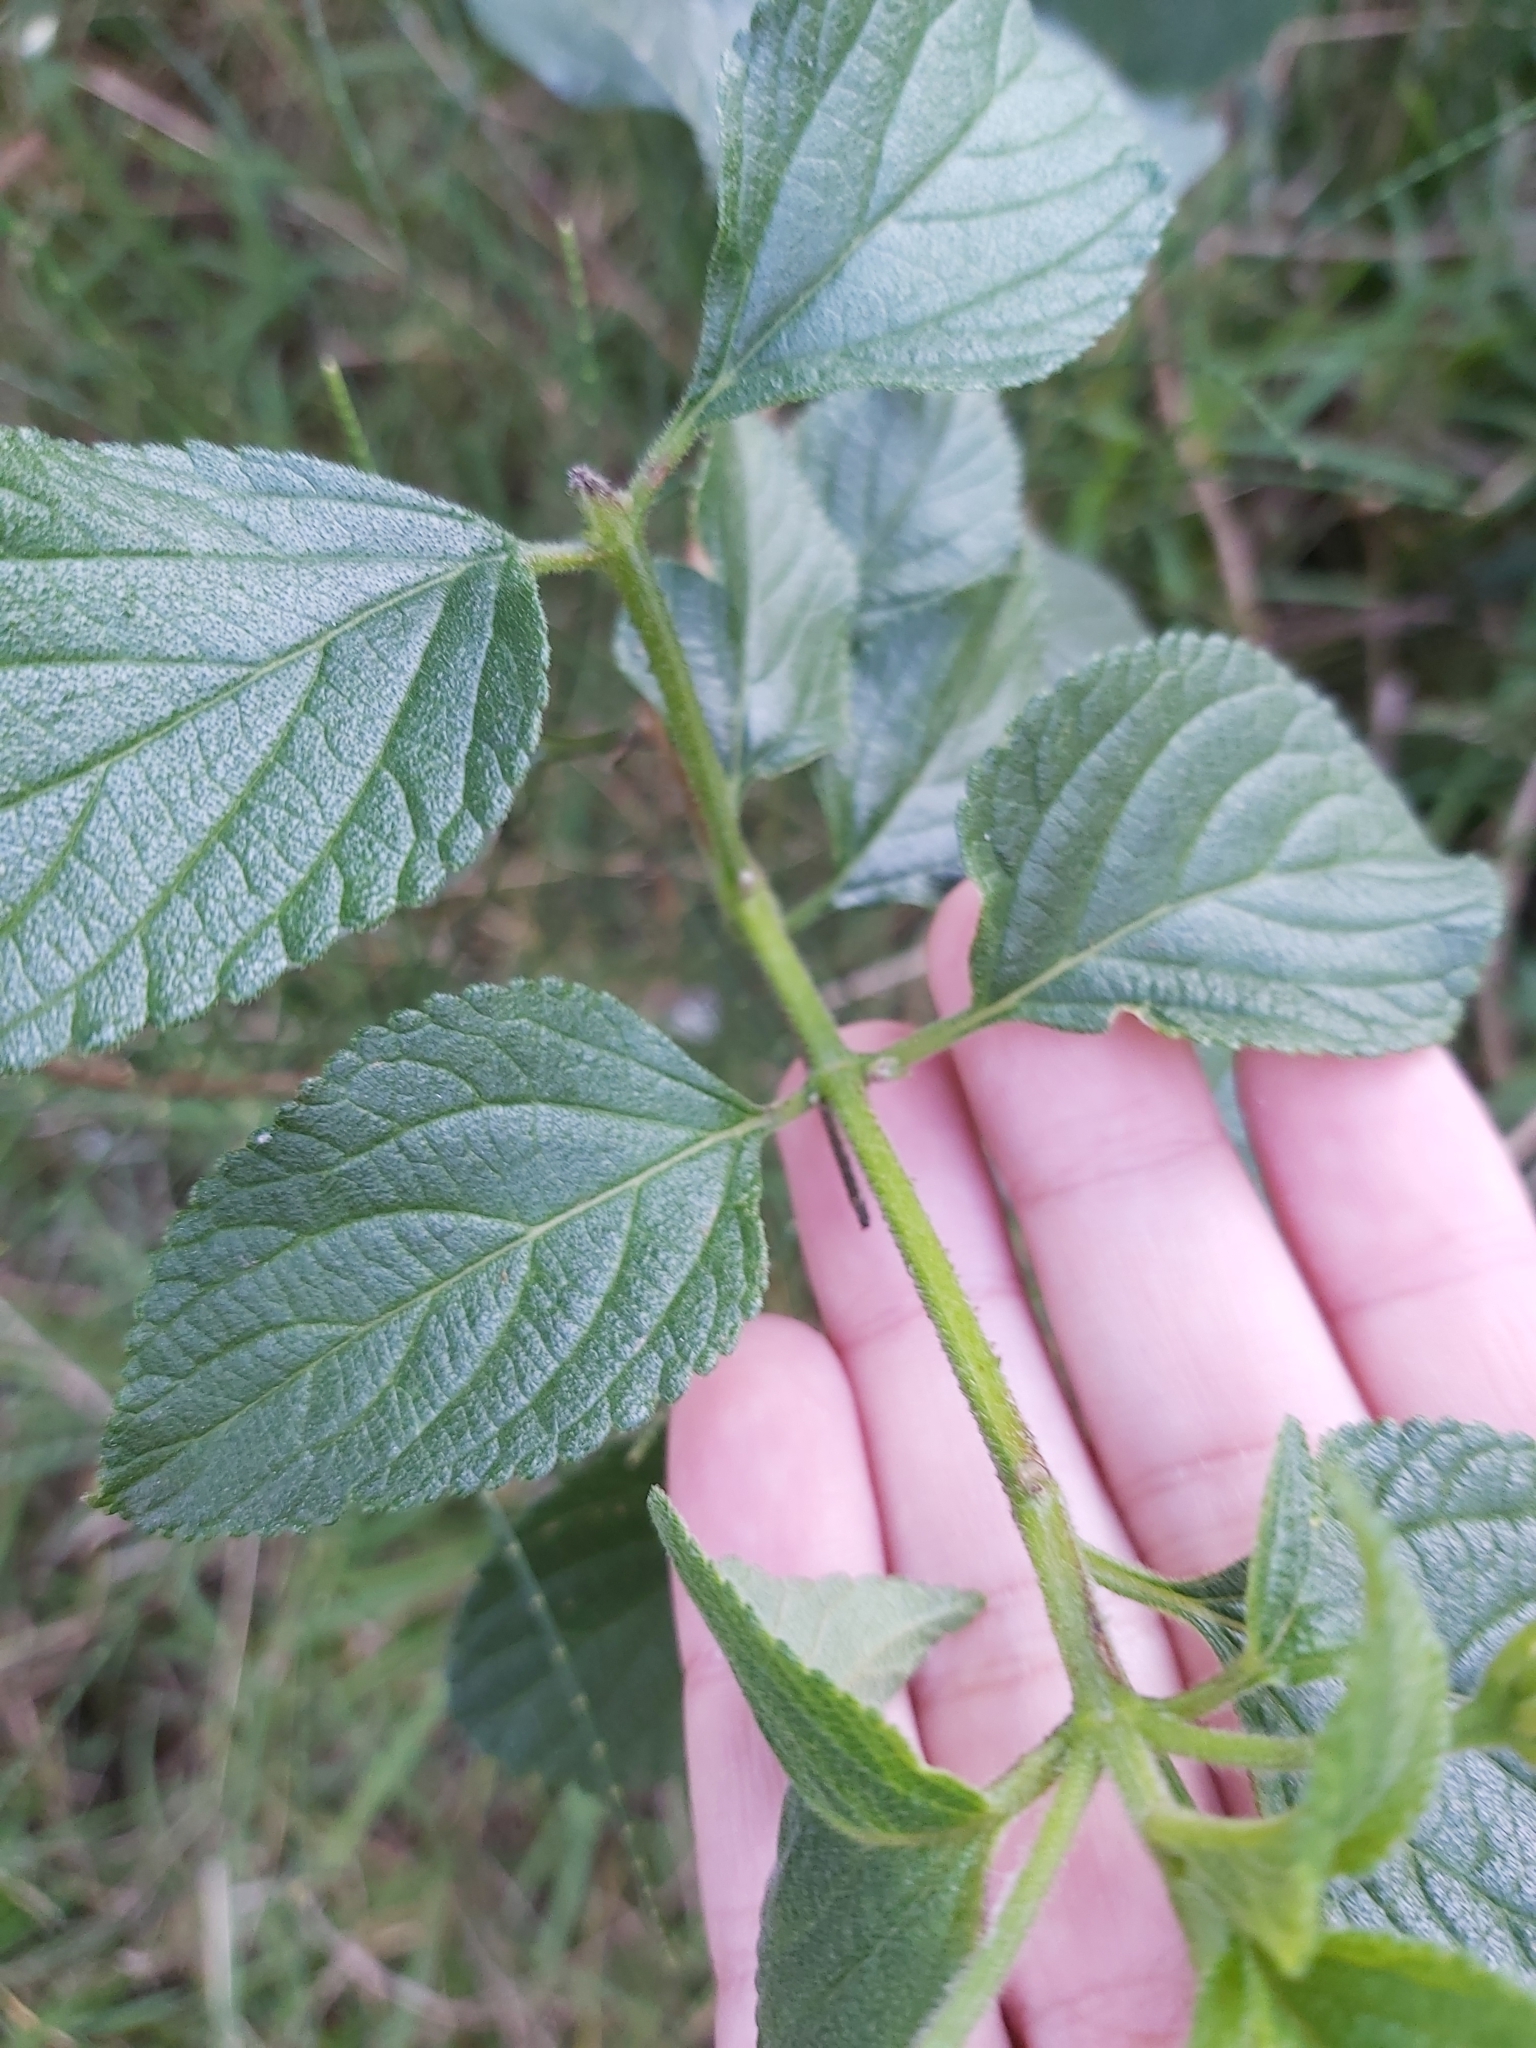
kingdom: Plantae
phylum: Tracheophyta
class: Magnoliopsida
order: Lamiales
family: Verbenaceae
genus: Lantana
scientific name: Lantana camara
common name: Lantana
